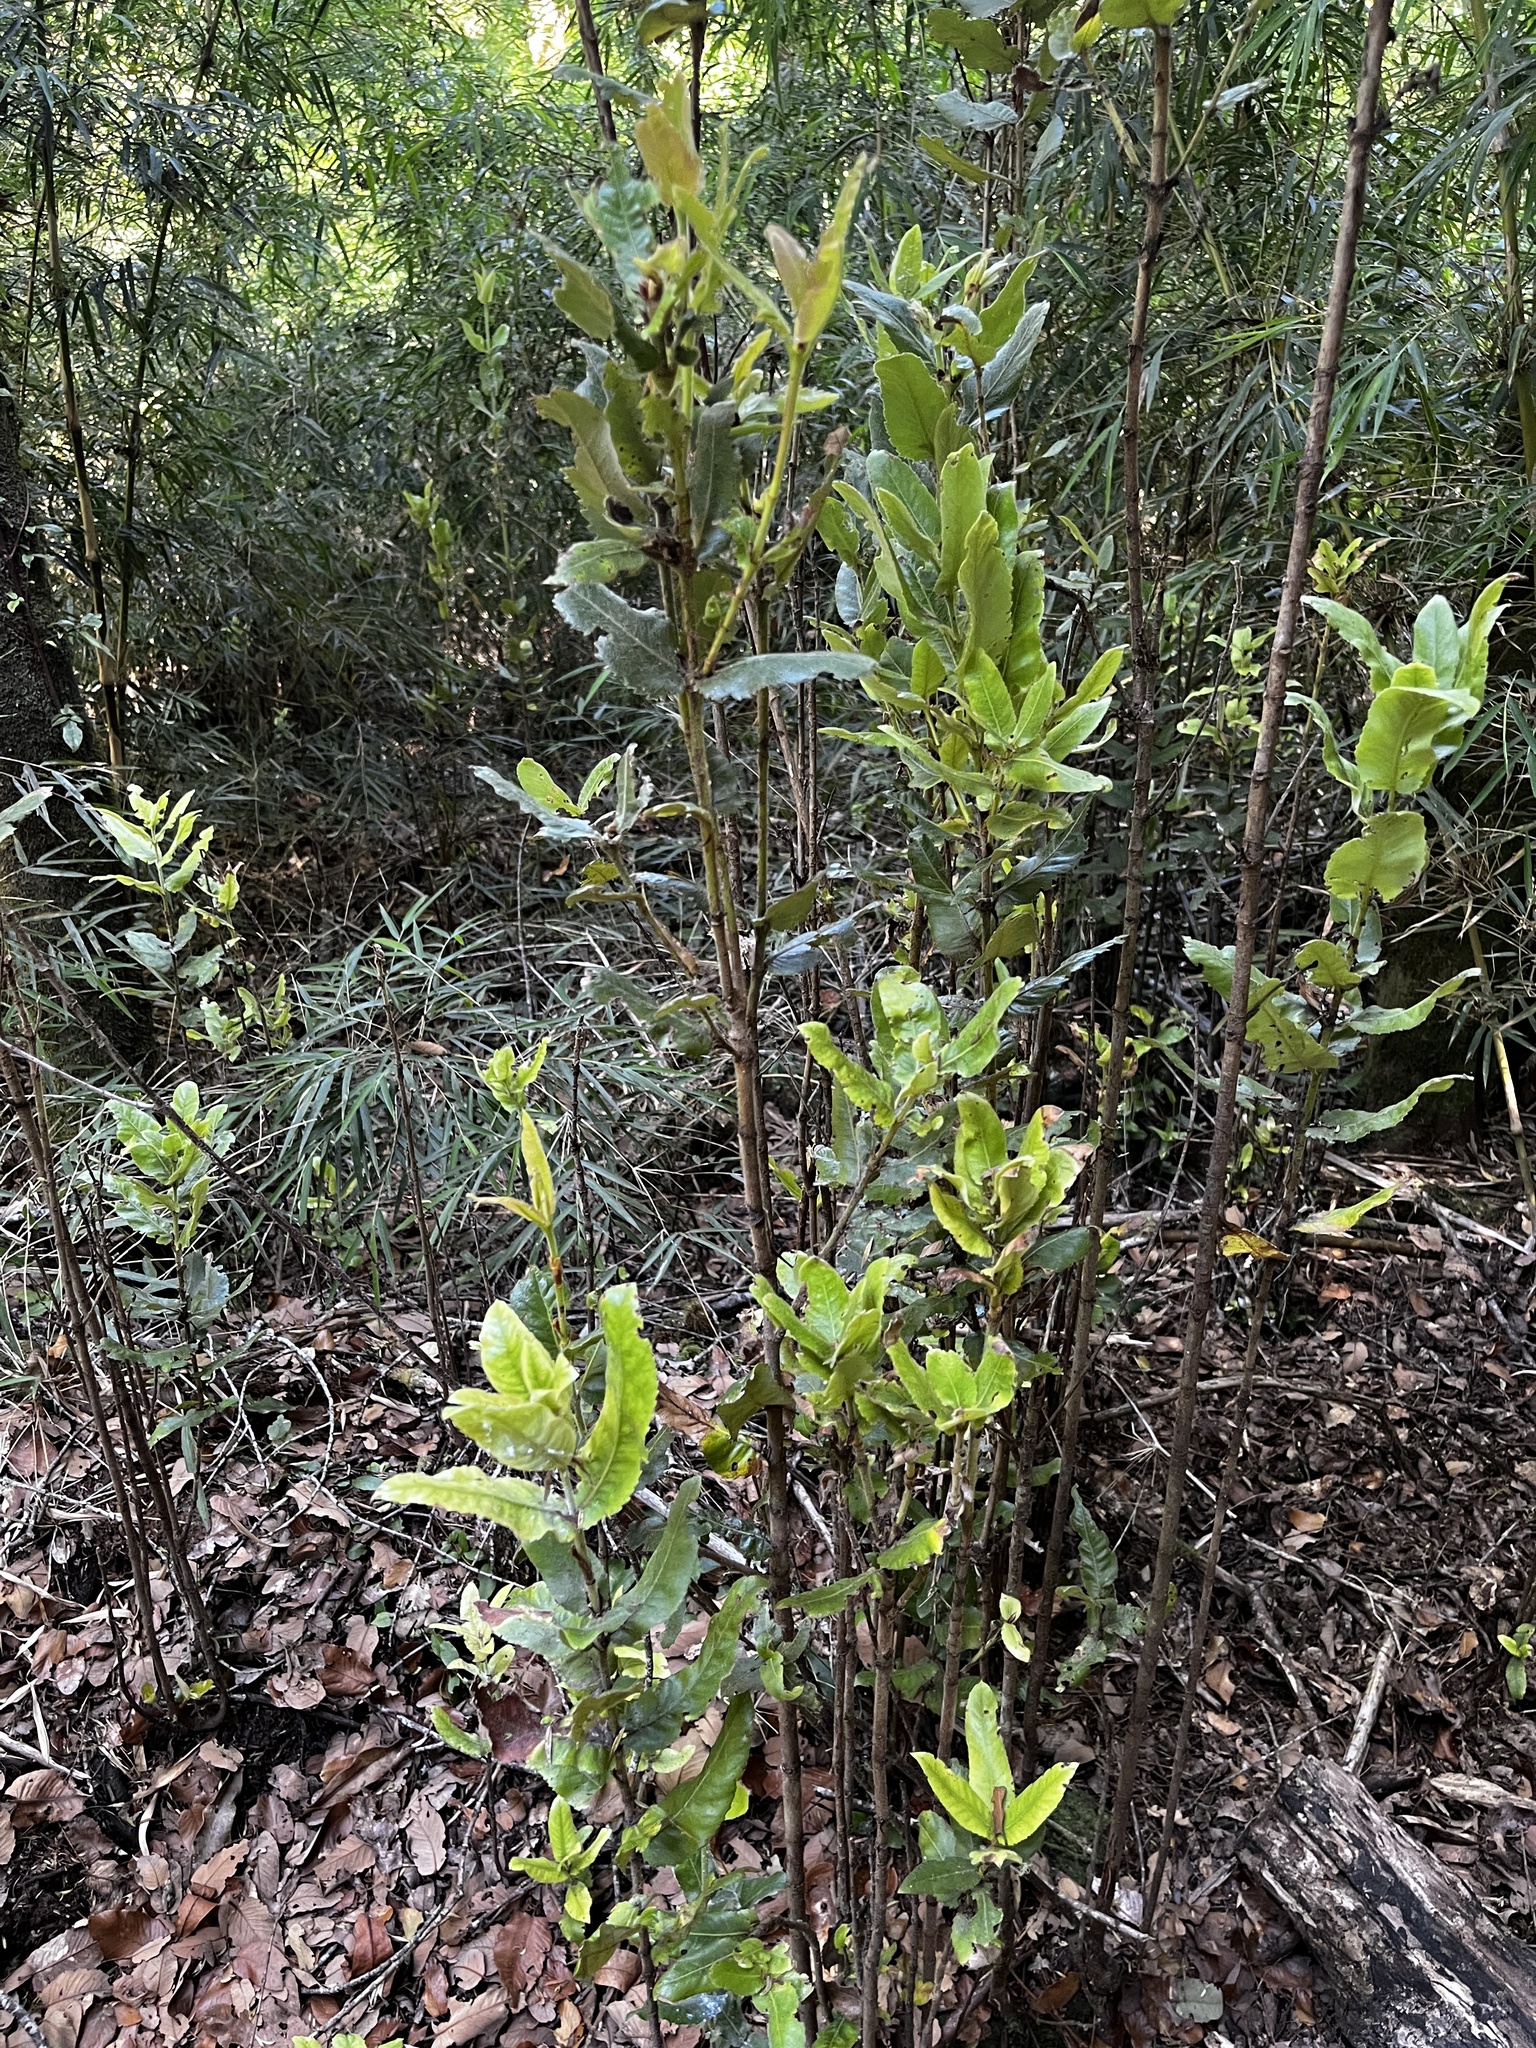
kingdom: Plantae
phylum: Tracheophyta
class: Magnoliopsida
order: Oxalidales
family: Cunoniaceae
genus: Eucryphia
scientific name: Eucryphia cordifolia
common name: Ulmo
